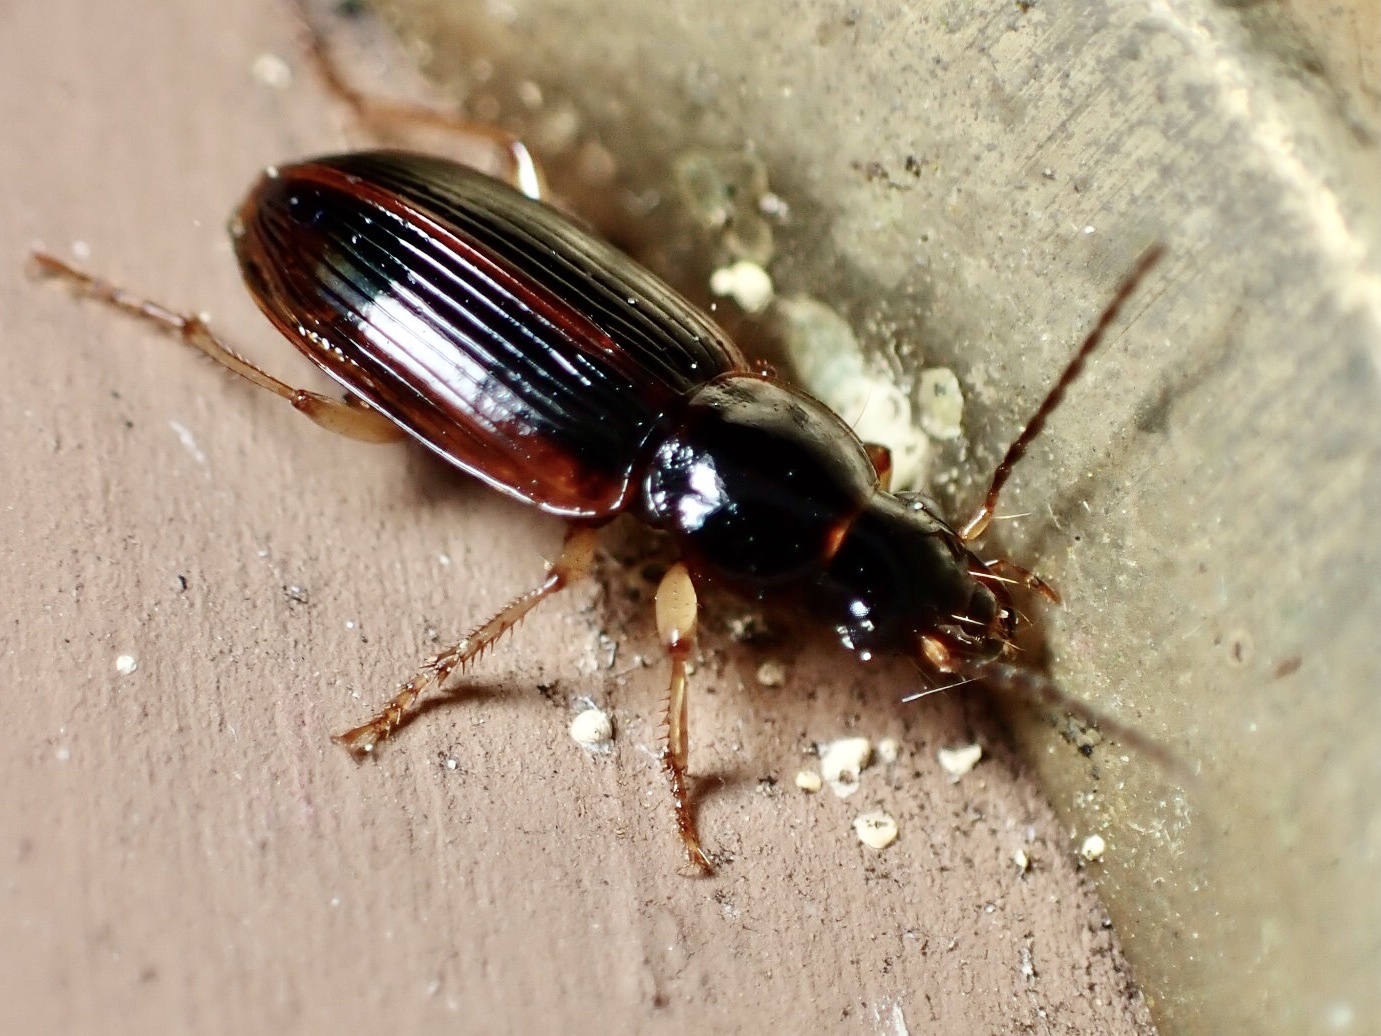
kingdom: Animalia
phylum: Arthropoda
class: Insecta
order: Coleoptera
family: Carabidae
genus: Stenolophus
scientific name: Stenolophus ochropezus
